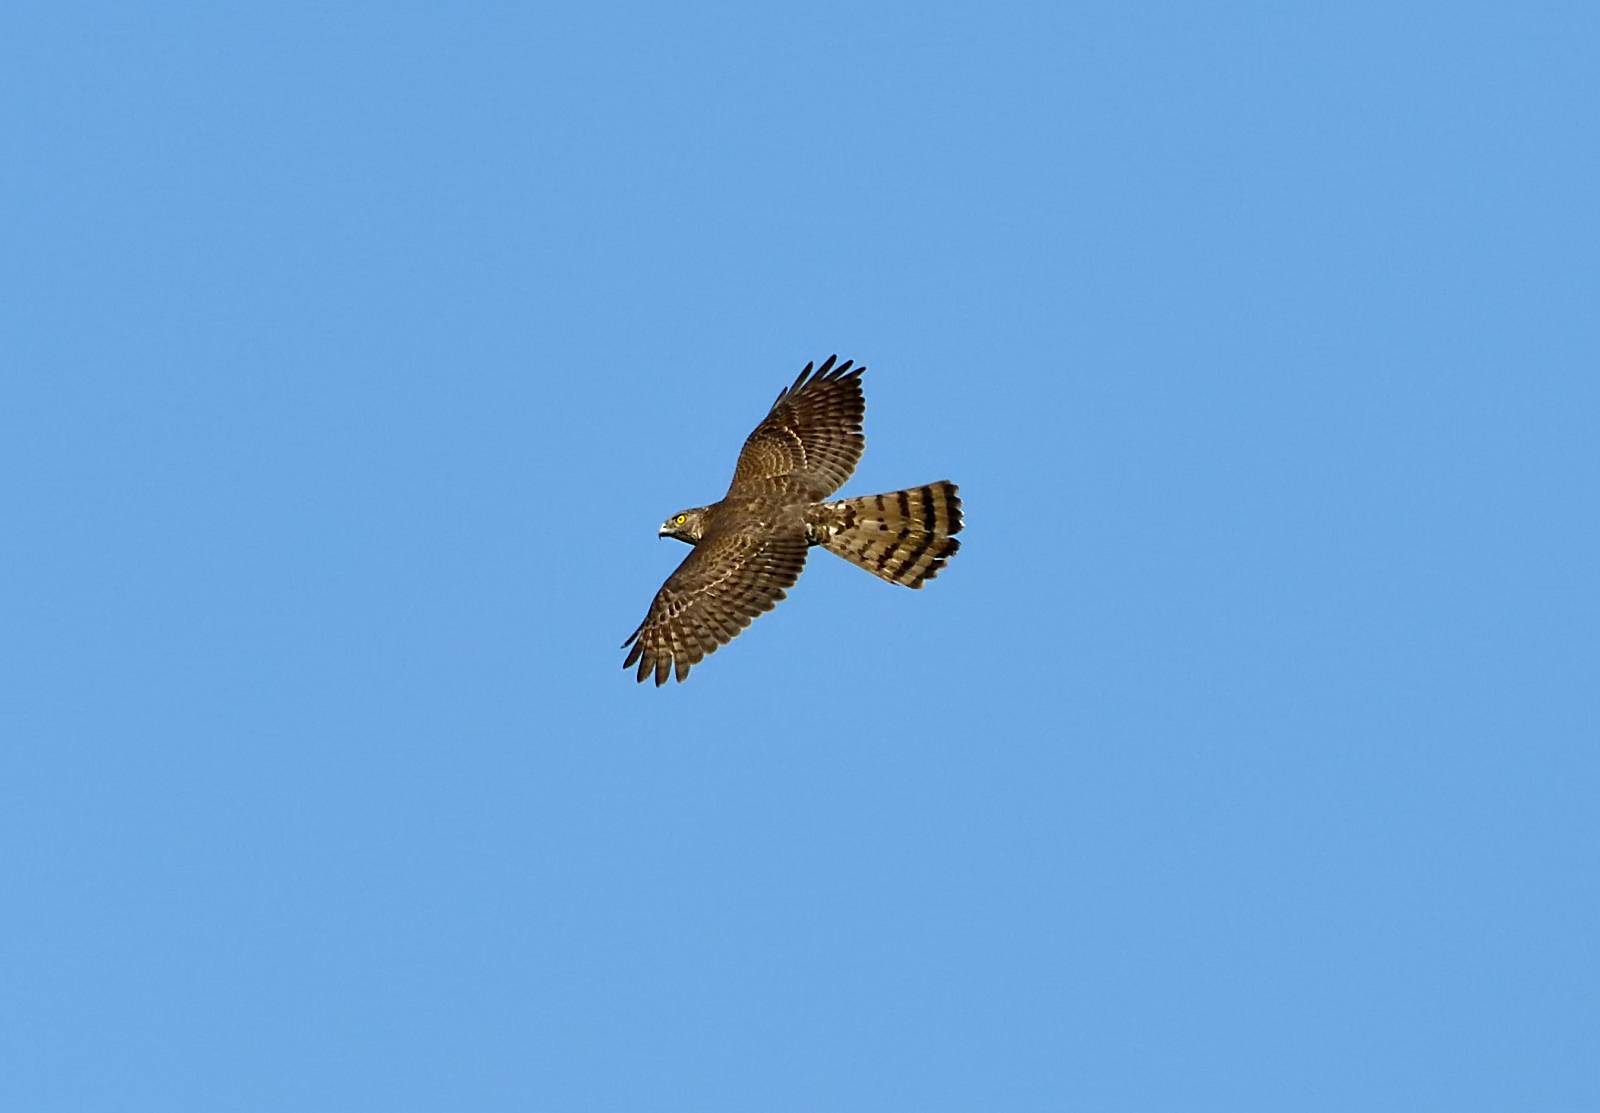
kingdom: Animalia
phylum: Chordata
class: Aves
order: Accipitriformes
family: Accipitridae
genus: Accipiter
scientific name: Accipiter badius
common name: Shikra
